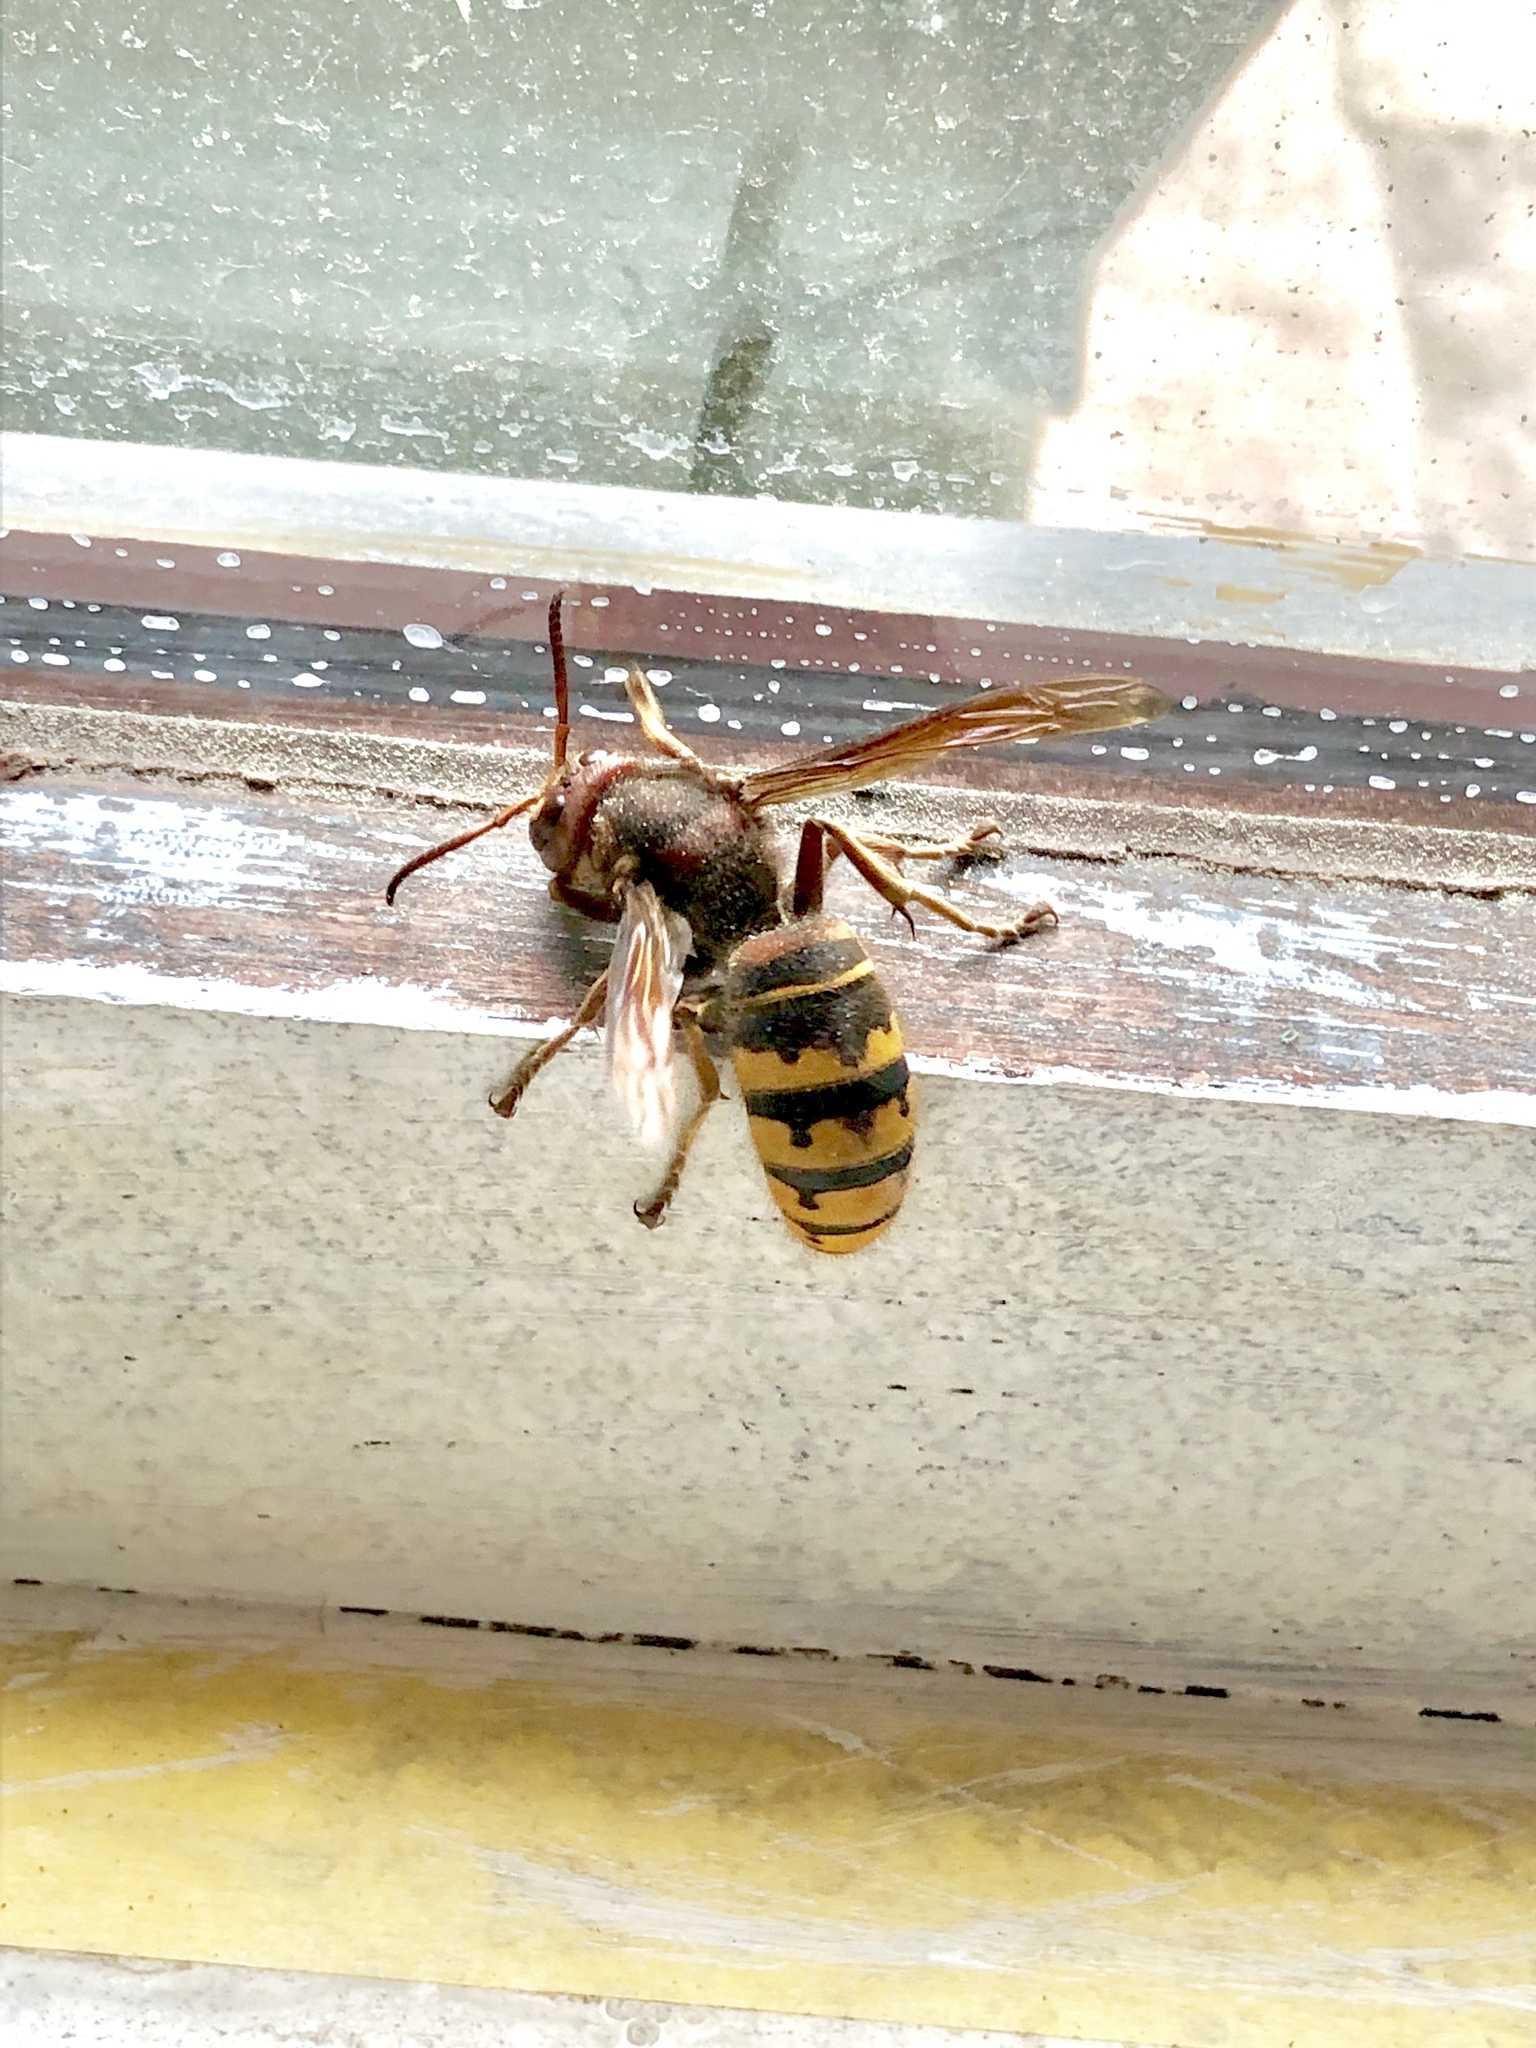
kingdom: Animalia
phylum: Arthropoda
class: Insecta
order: Hymenoptera
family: Vespidae
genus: Vespa
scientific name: Vespa crabro
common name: Hornet
